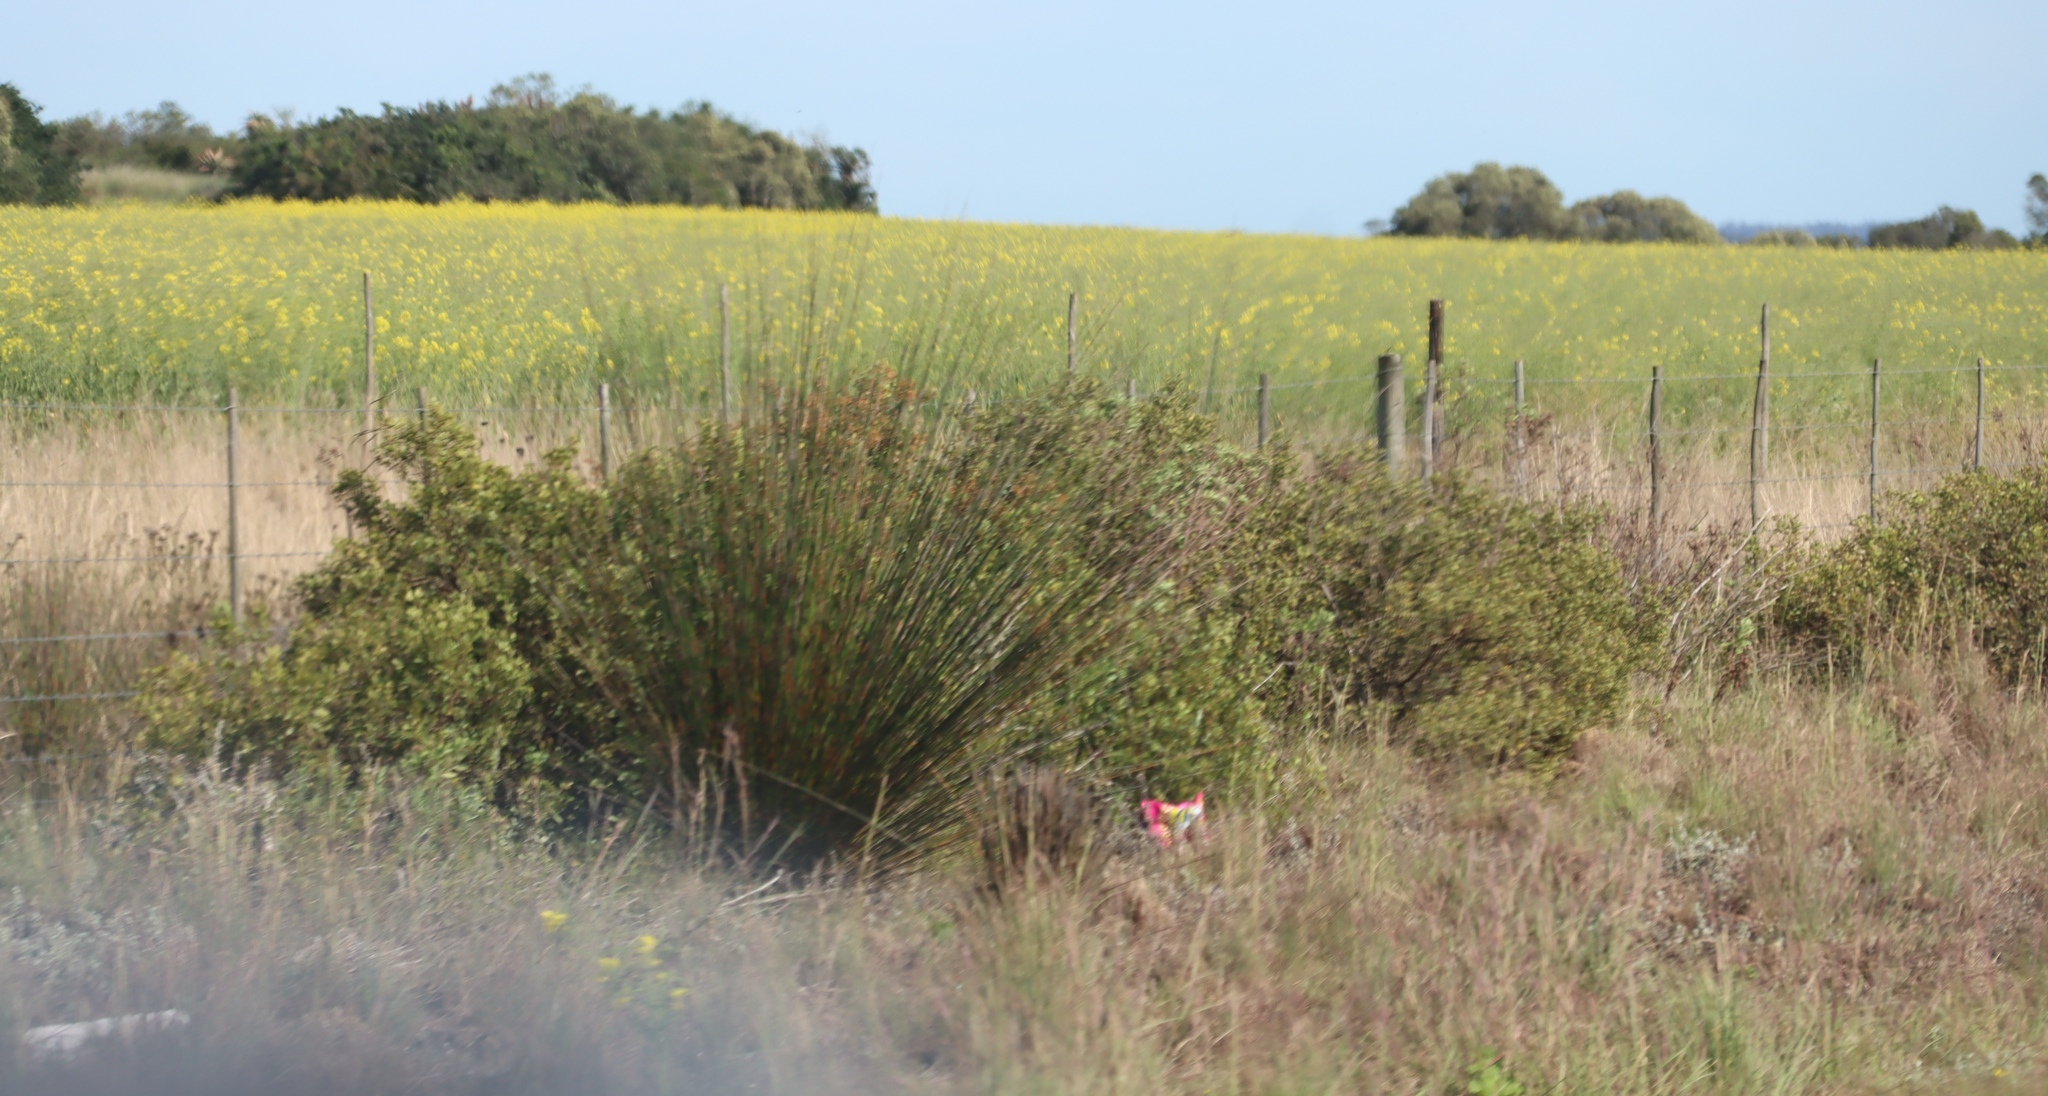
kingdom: Plantae
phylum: Tracheophyta
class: Liliopsida
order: Poales
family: Restionaceae
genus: Thamnochortus
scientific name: Thamnochortus insignis
